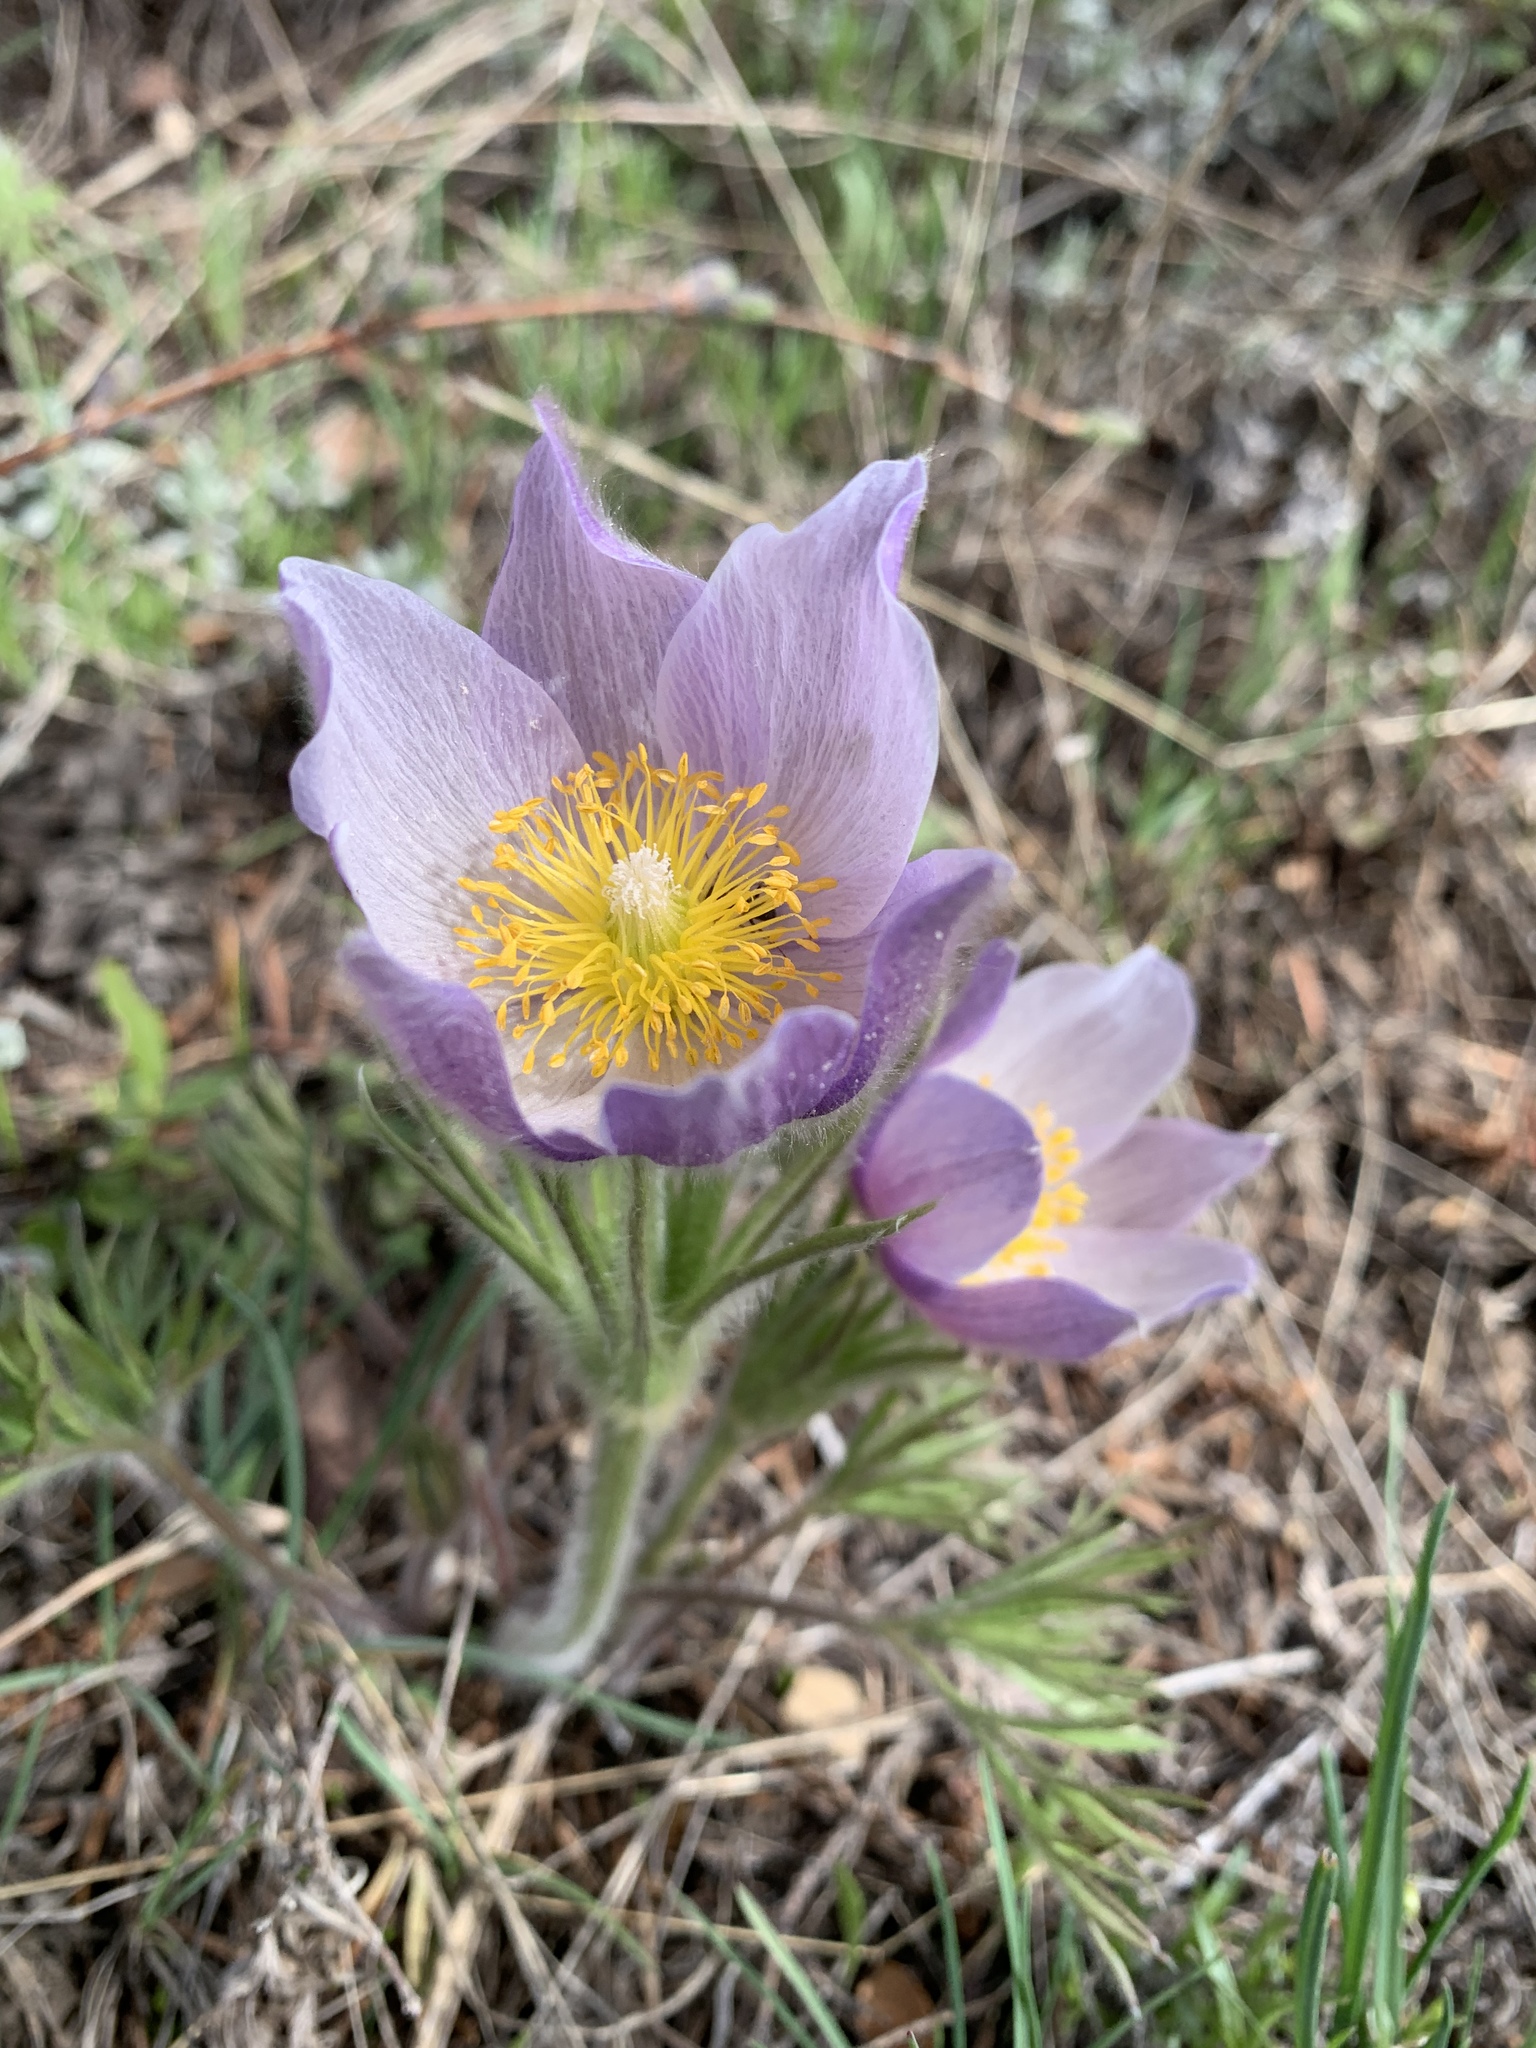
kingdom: Plantae
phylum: Tracheophyta
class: Magnoliopsida
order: Ranunculales
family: Ranunculaceae
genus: Pulsatilla
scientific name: Pulsatilla nuttalliana
